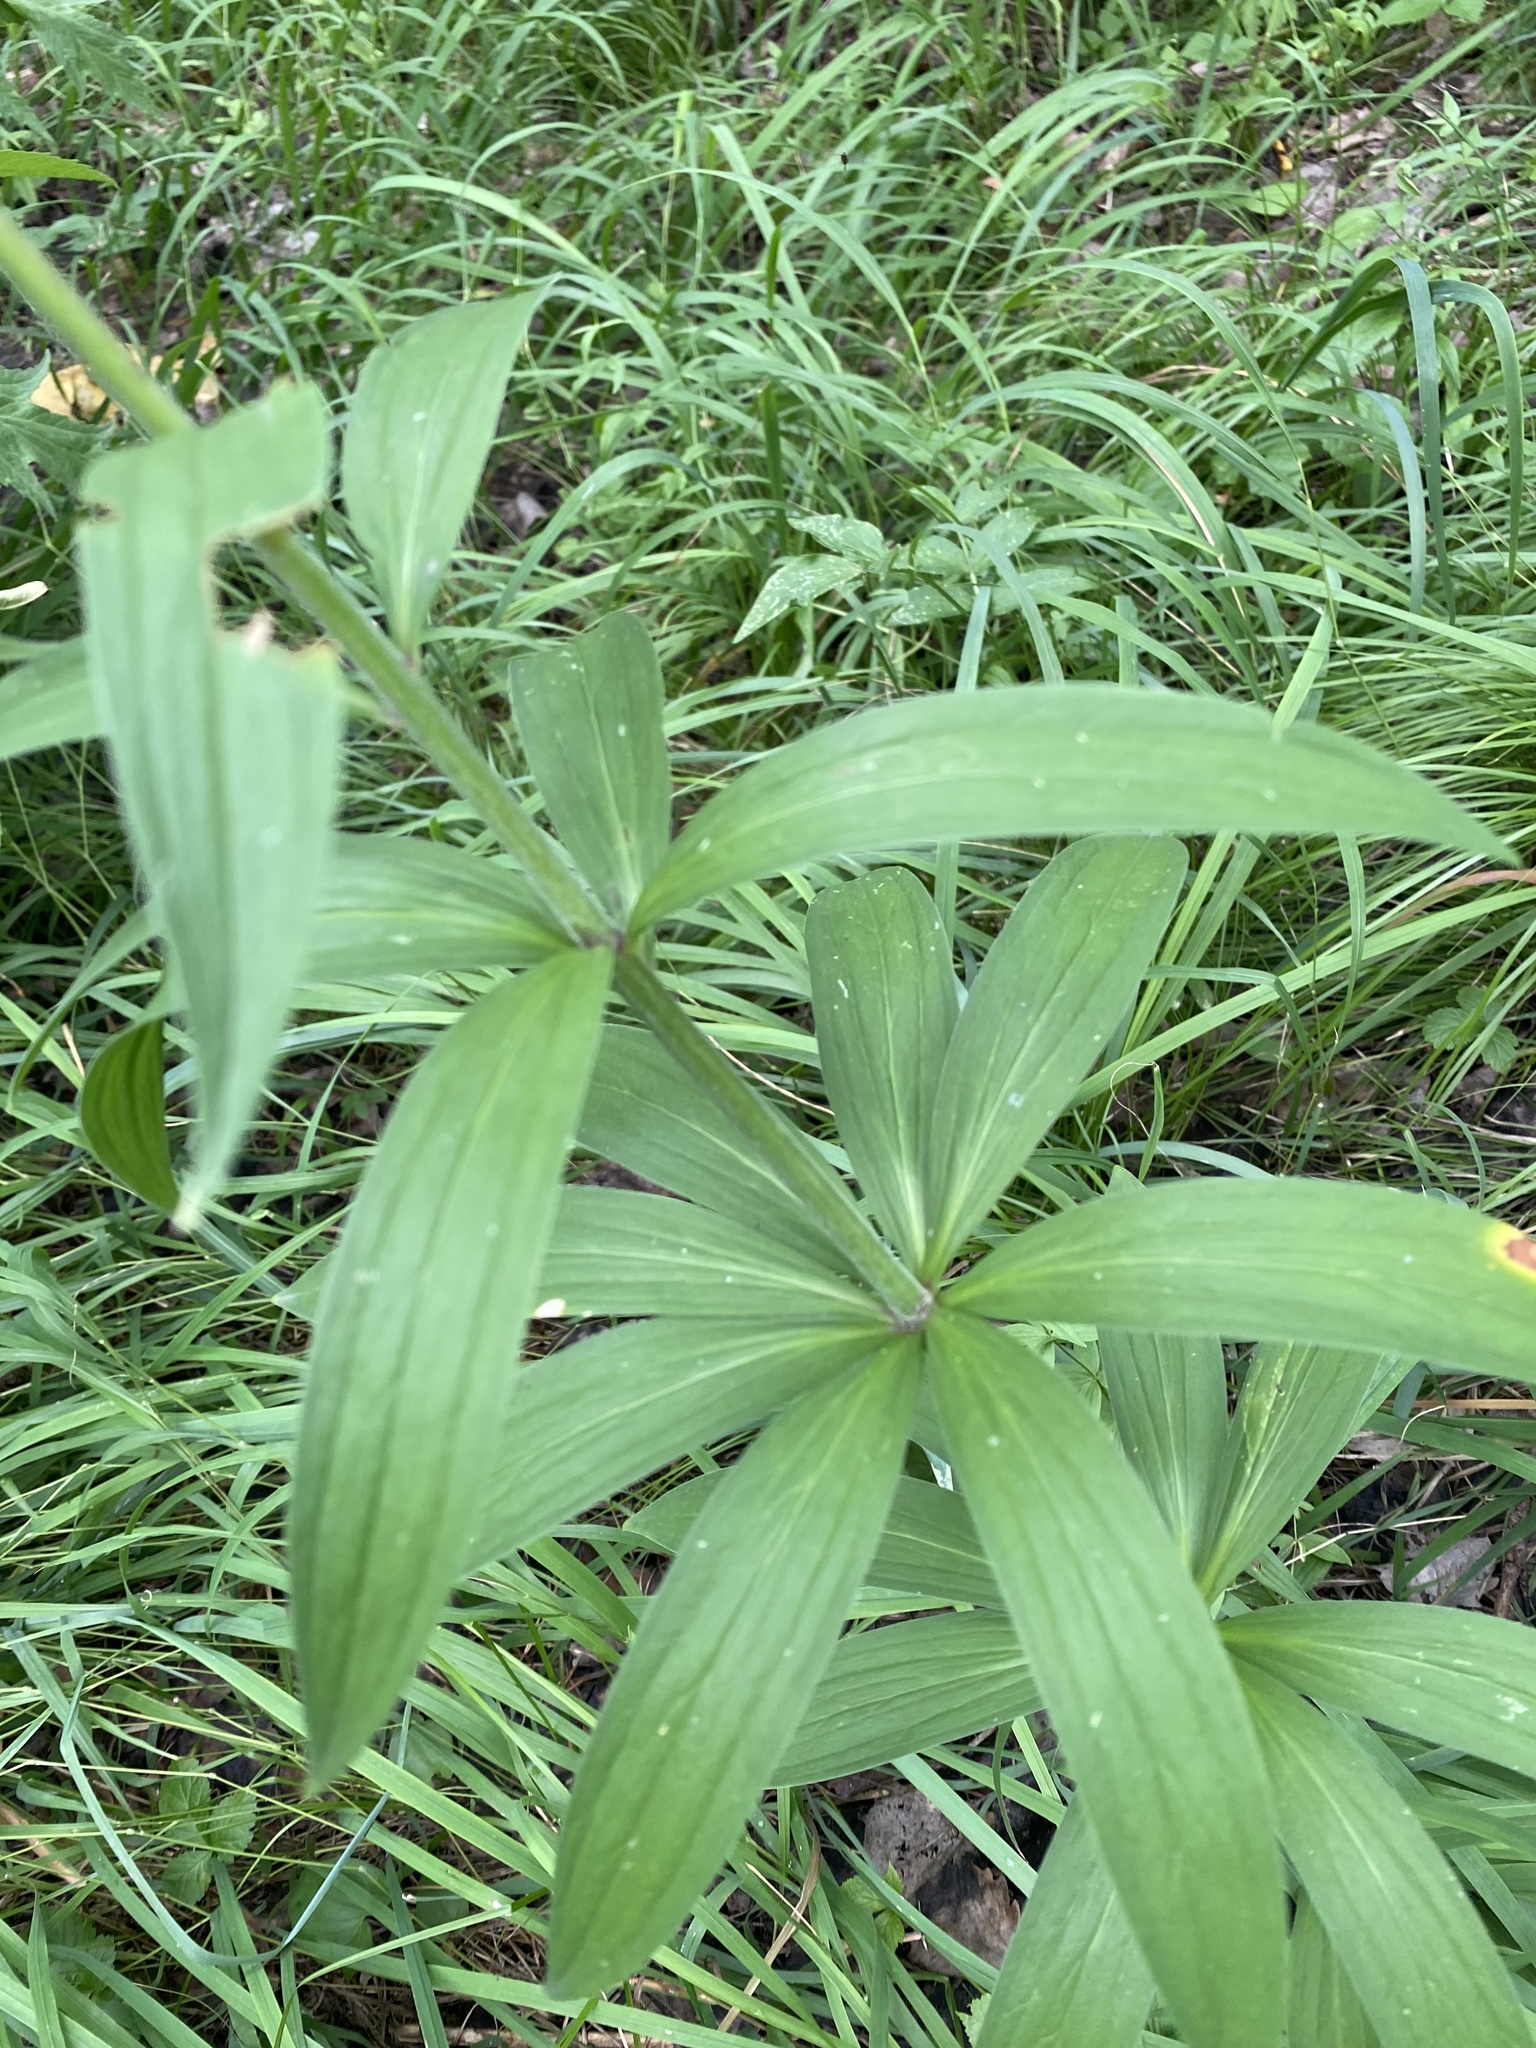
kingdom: Plantae
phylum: Tracheophyta
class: Liliopsida
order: Liliales
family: Liliaceae
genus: Lilium
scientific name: Lilium martagon
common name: Martagon lily
